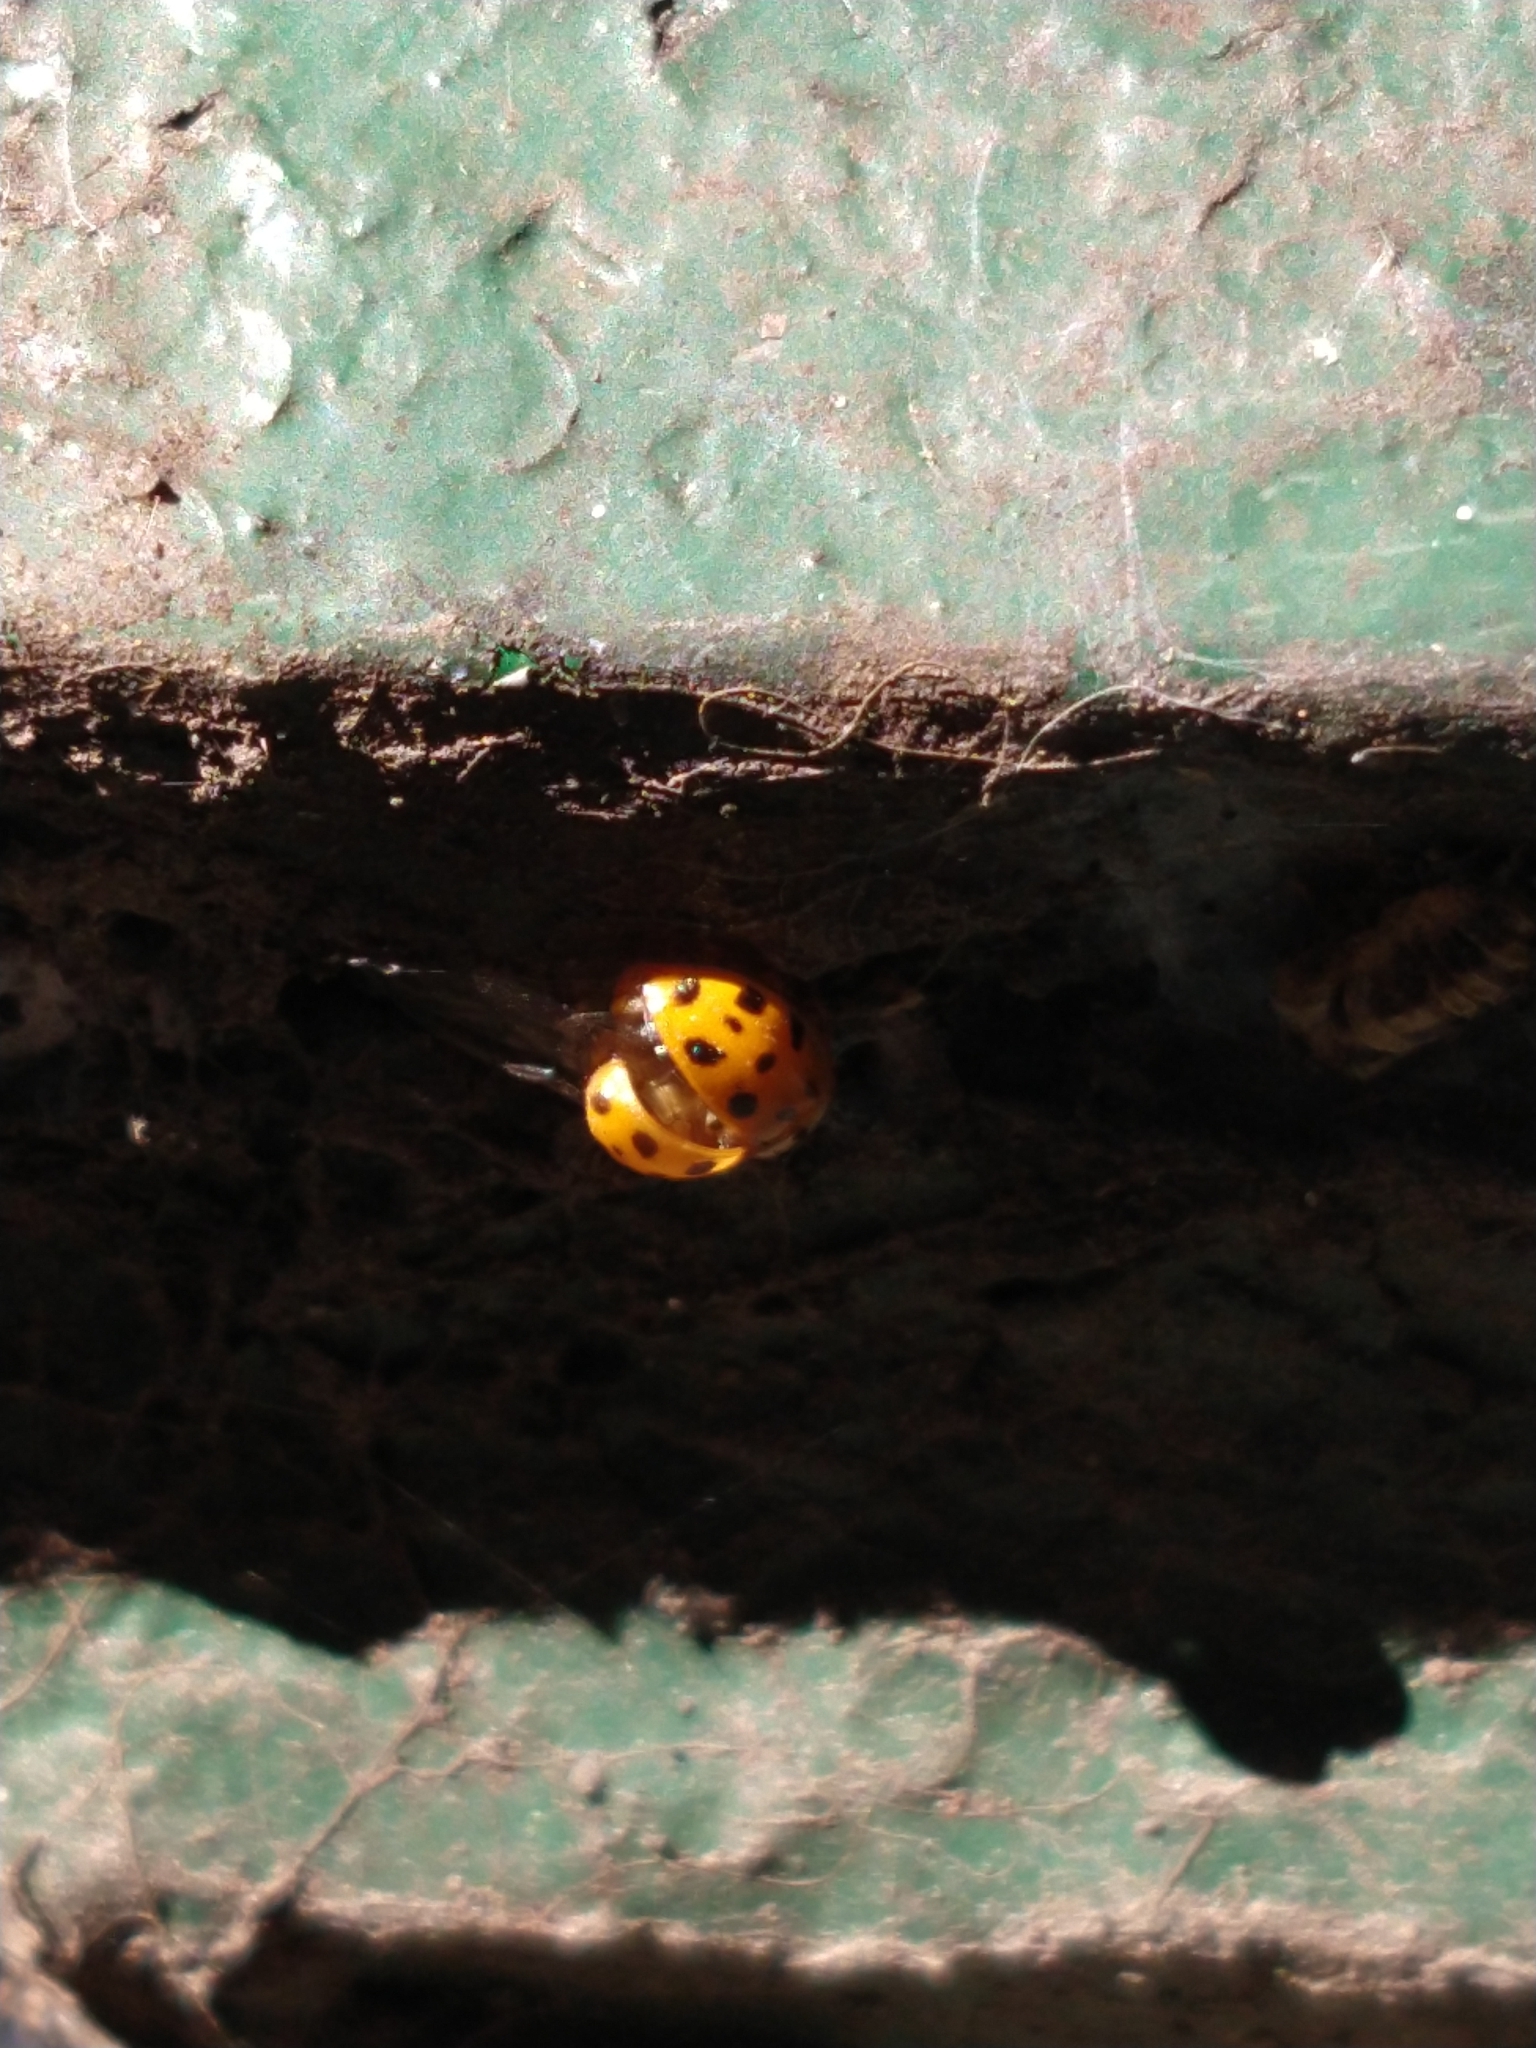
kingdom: Animalia
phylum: Arthropoda
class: Insecta
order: Coleoptera
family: Coccinellidae
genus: Harmonia
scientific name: Harmonia axyridis
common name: Harlequin ladybird
